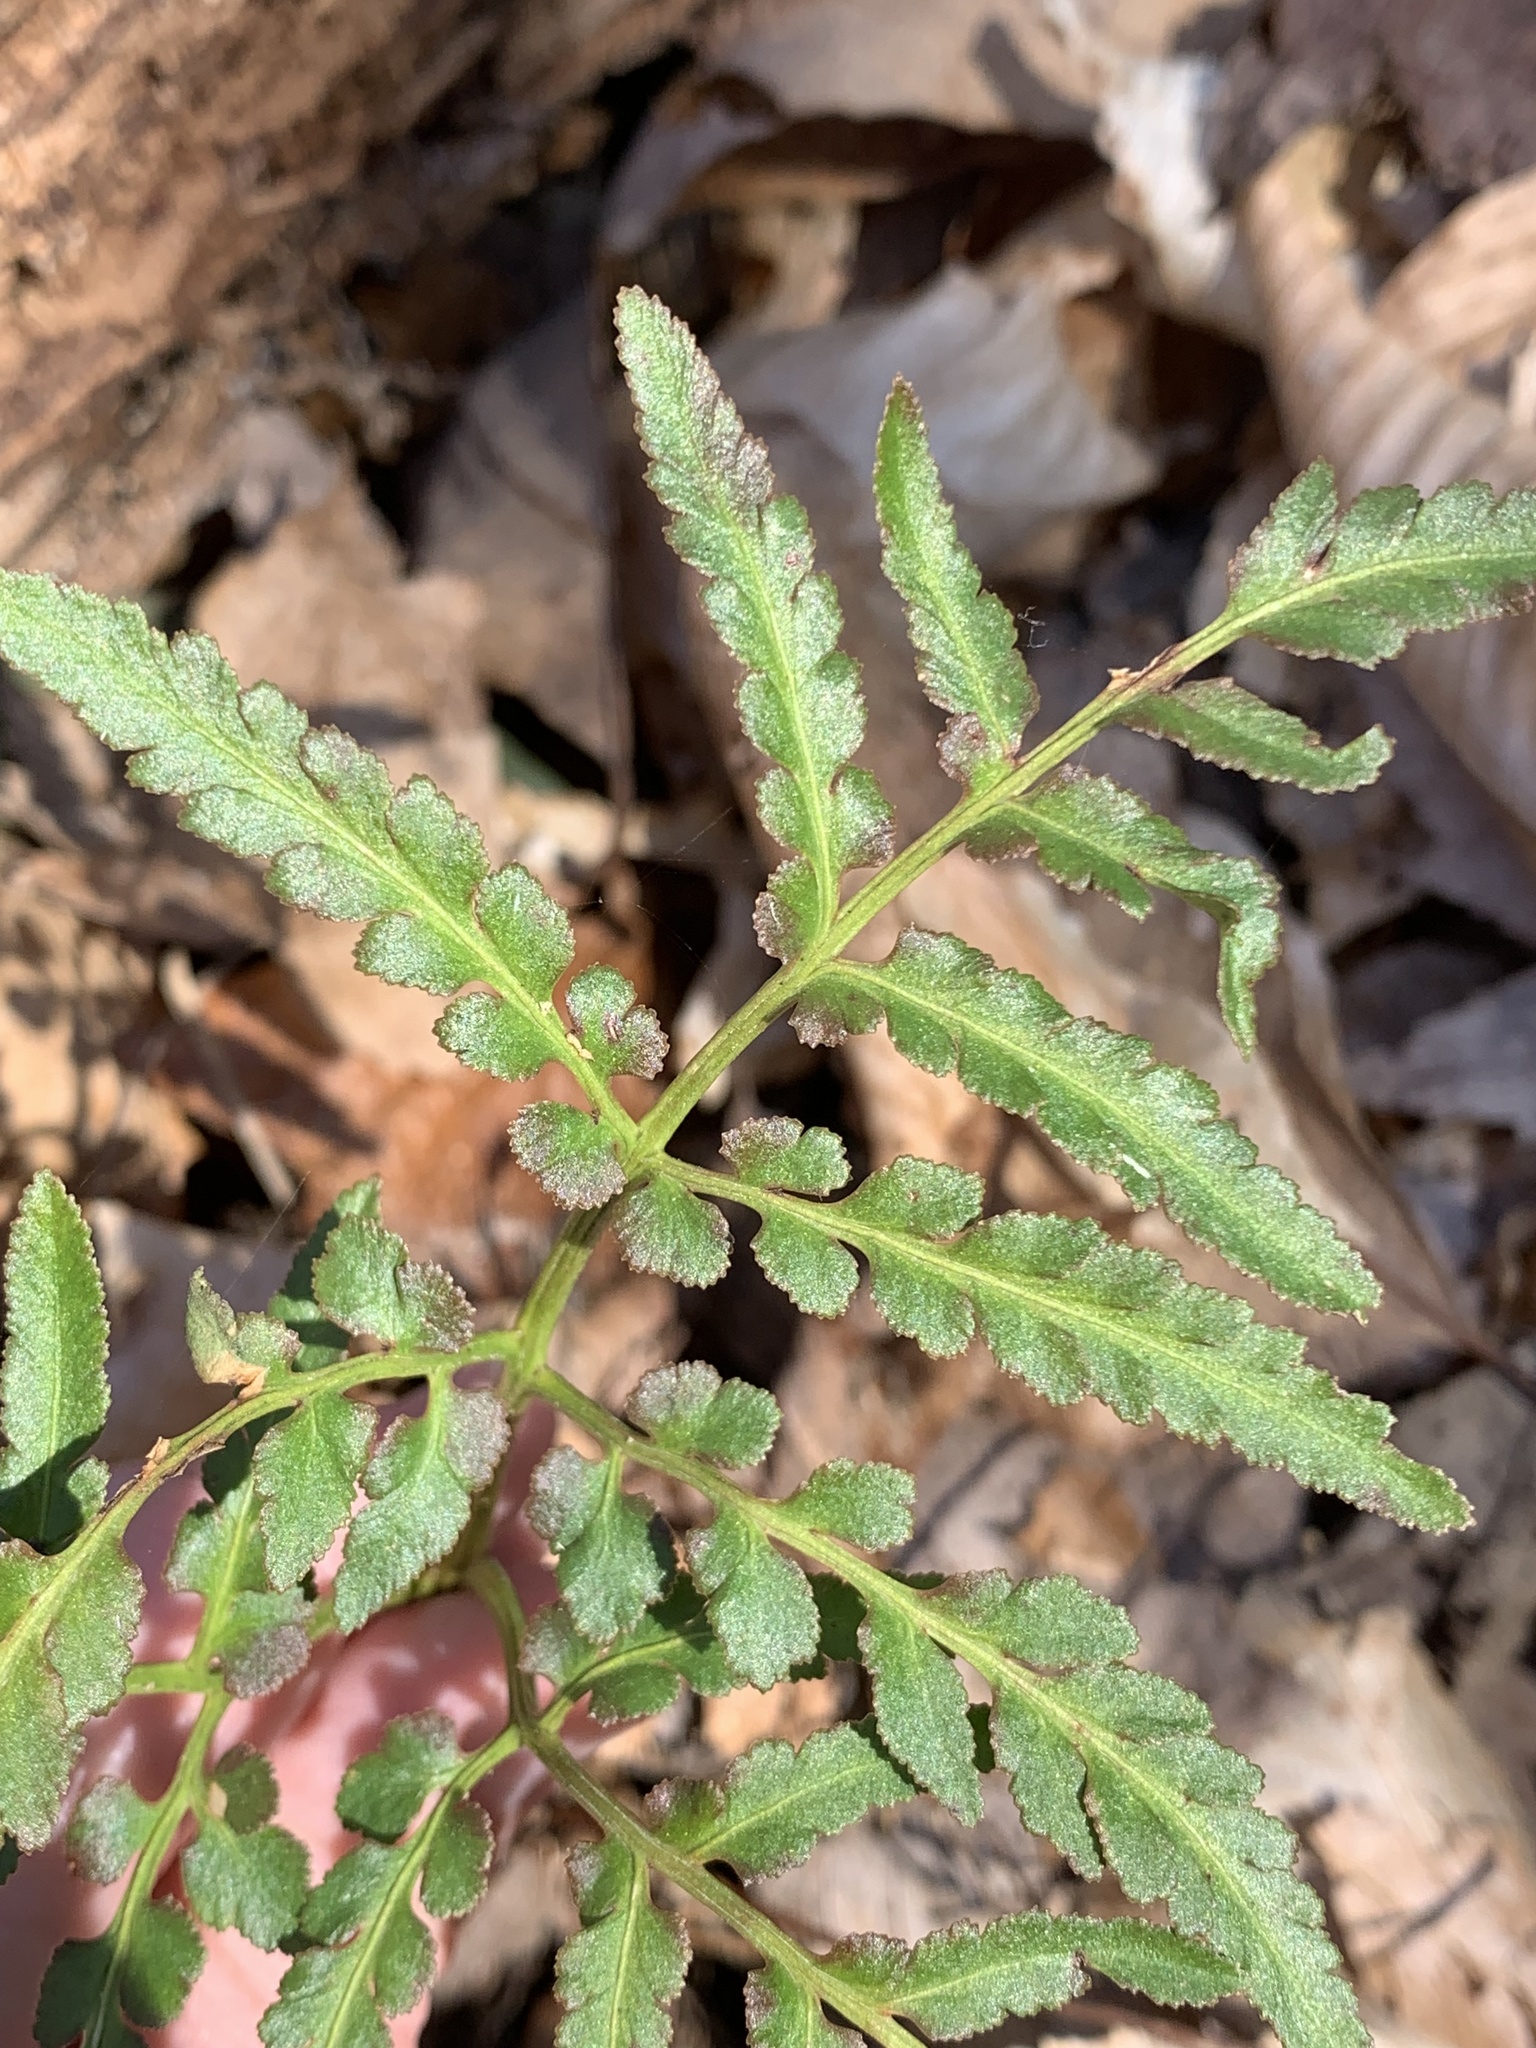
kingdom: Plantae
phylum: Tracheophyta
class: Polypodiopsida
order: Ophioglossales
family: Ophioglossaceae
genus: Sceptridium
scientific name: Sceptridium dissectum
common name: Cut-leaved grapefern
